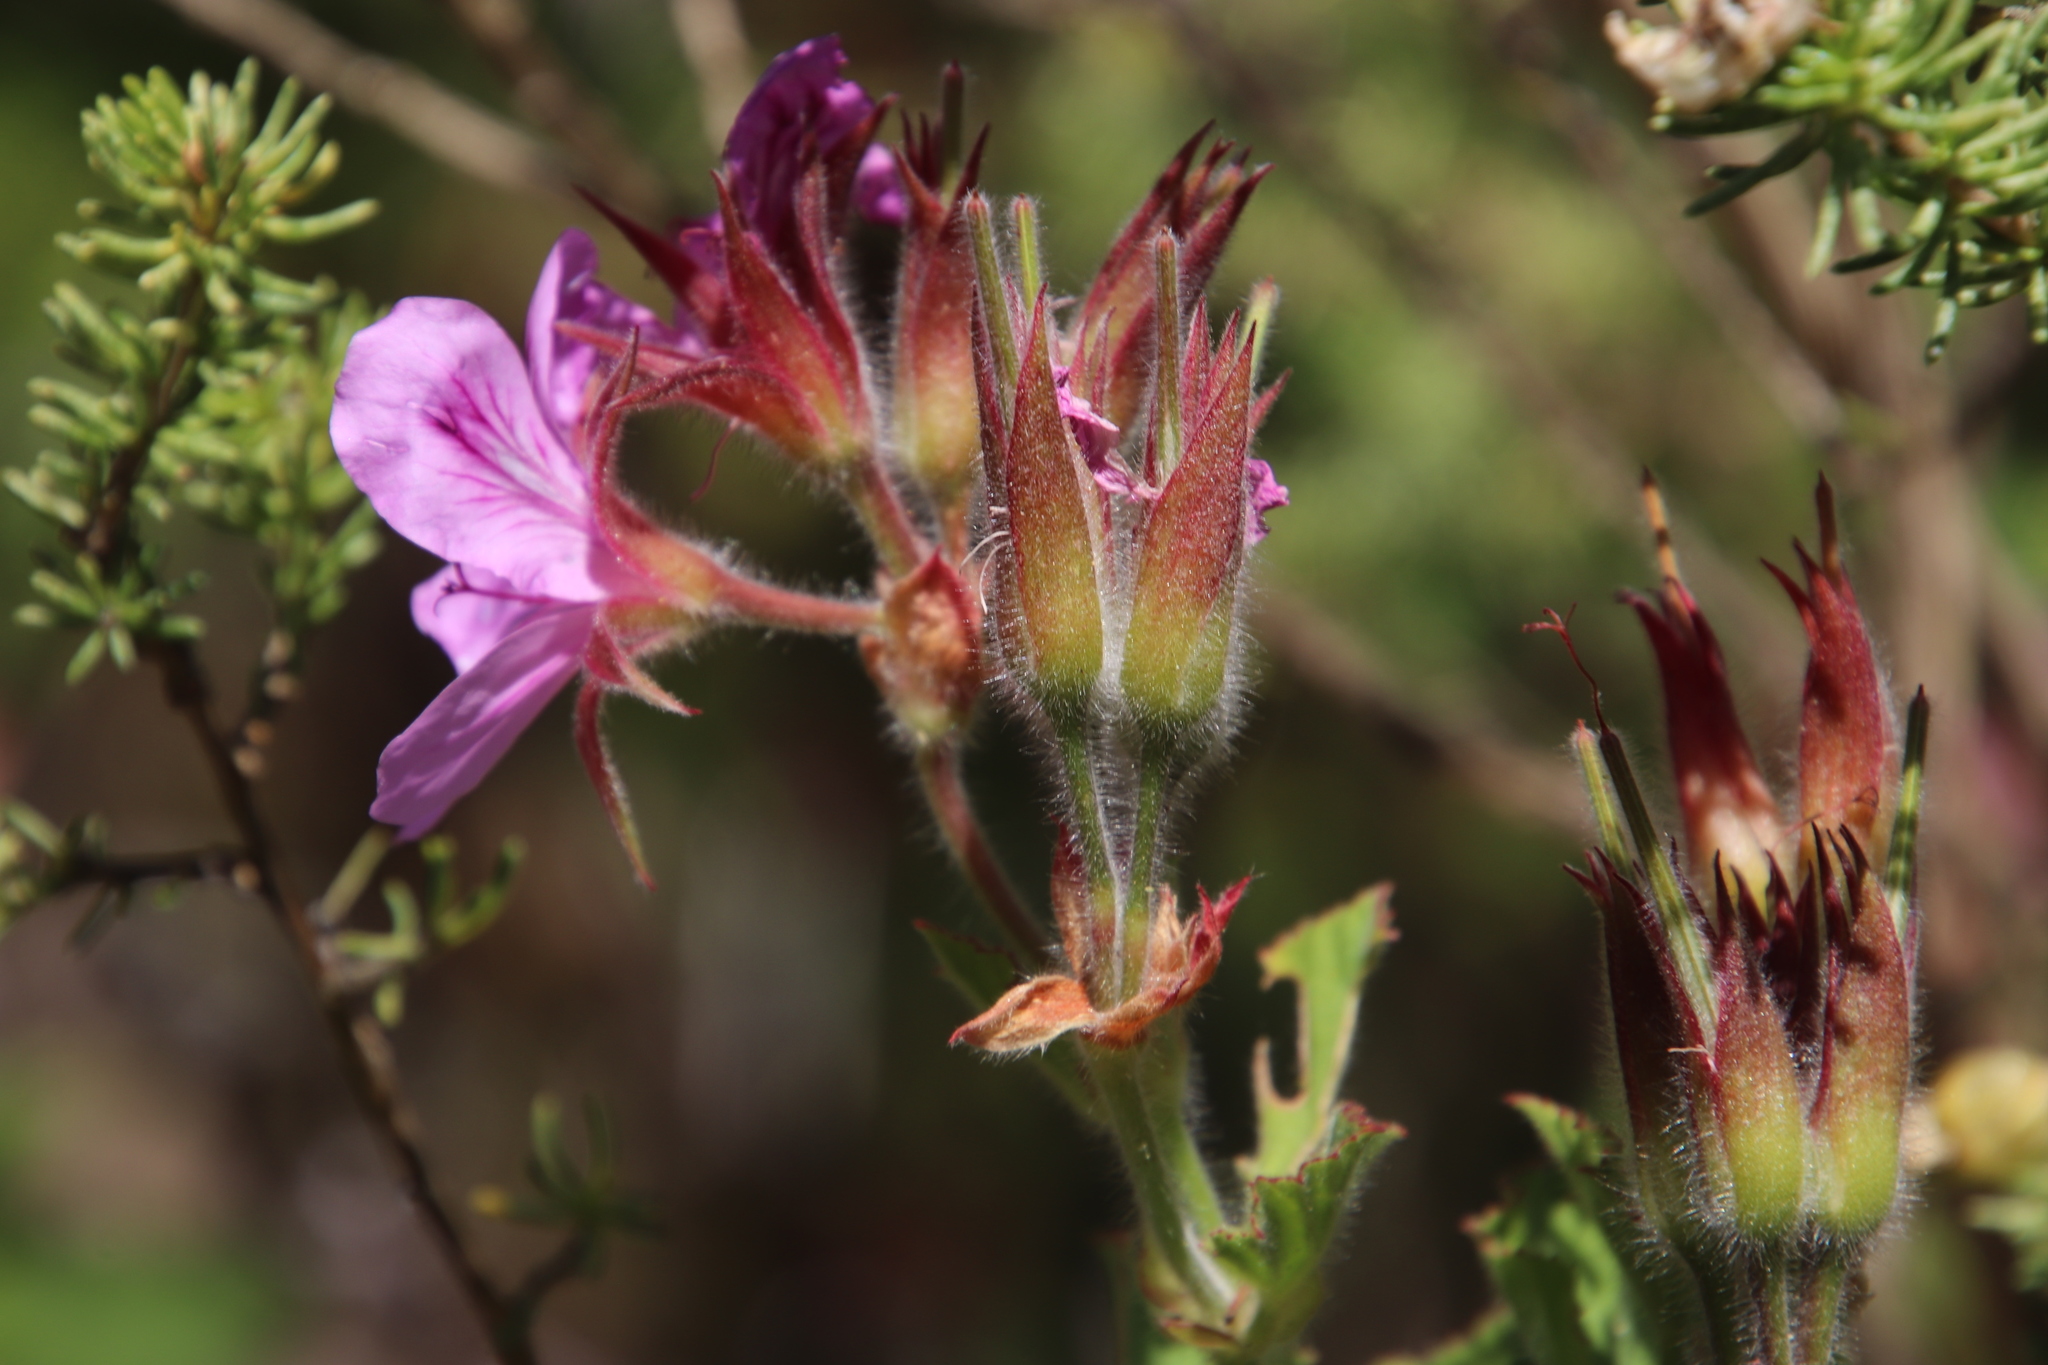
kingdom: Plantae
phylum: Tracheophyta
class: Magnoliopsida
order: Geraniales
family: Geraniaceae
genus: Pelargonium
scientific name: Pelargonium cucullatum
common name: Tree pelargonium
